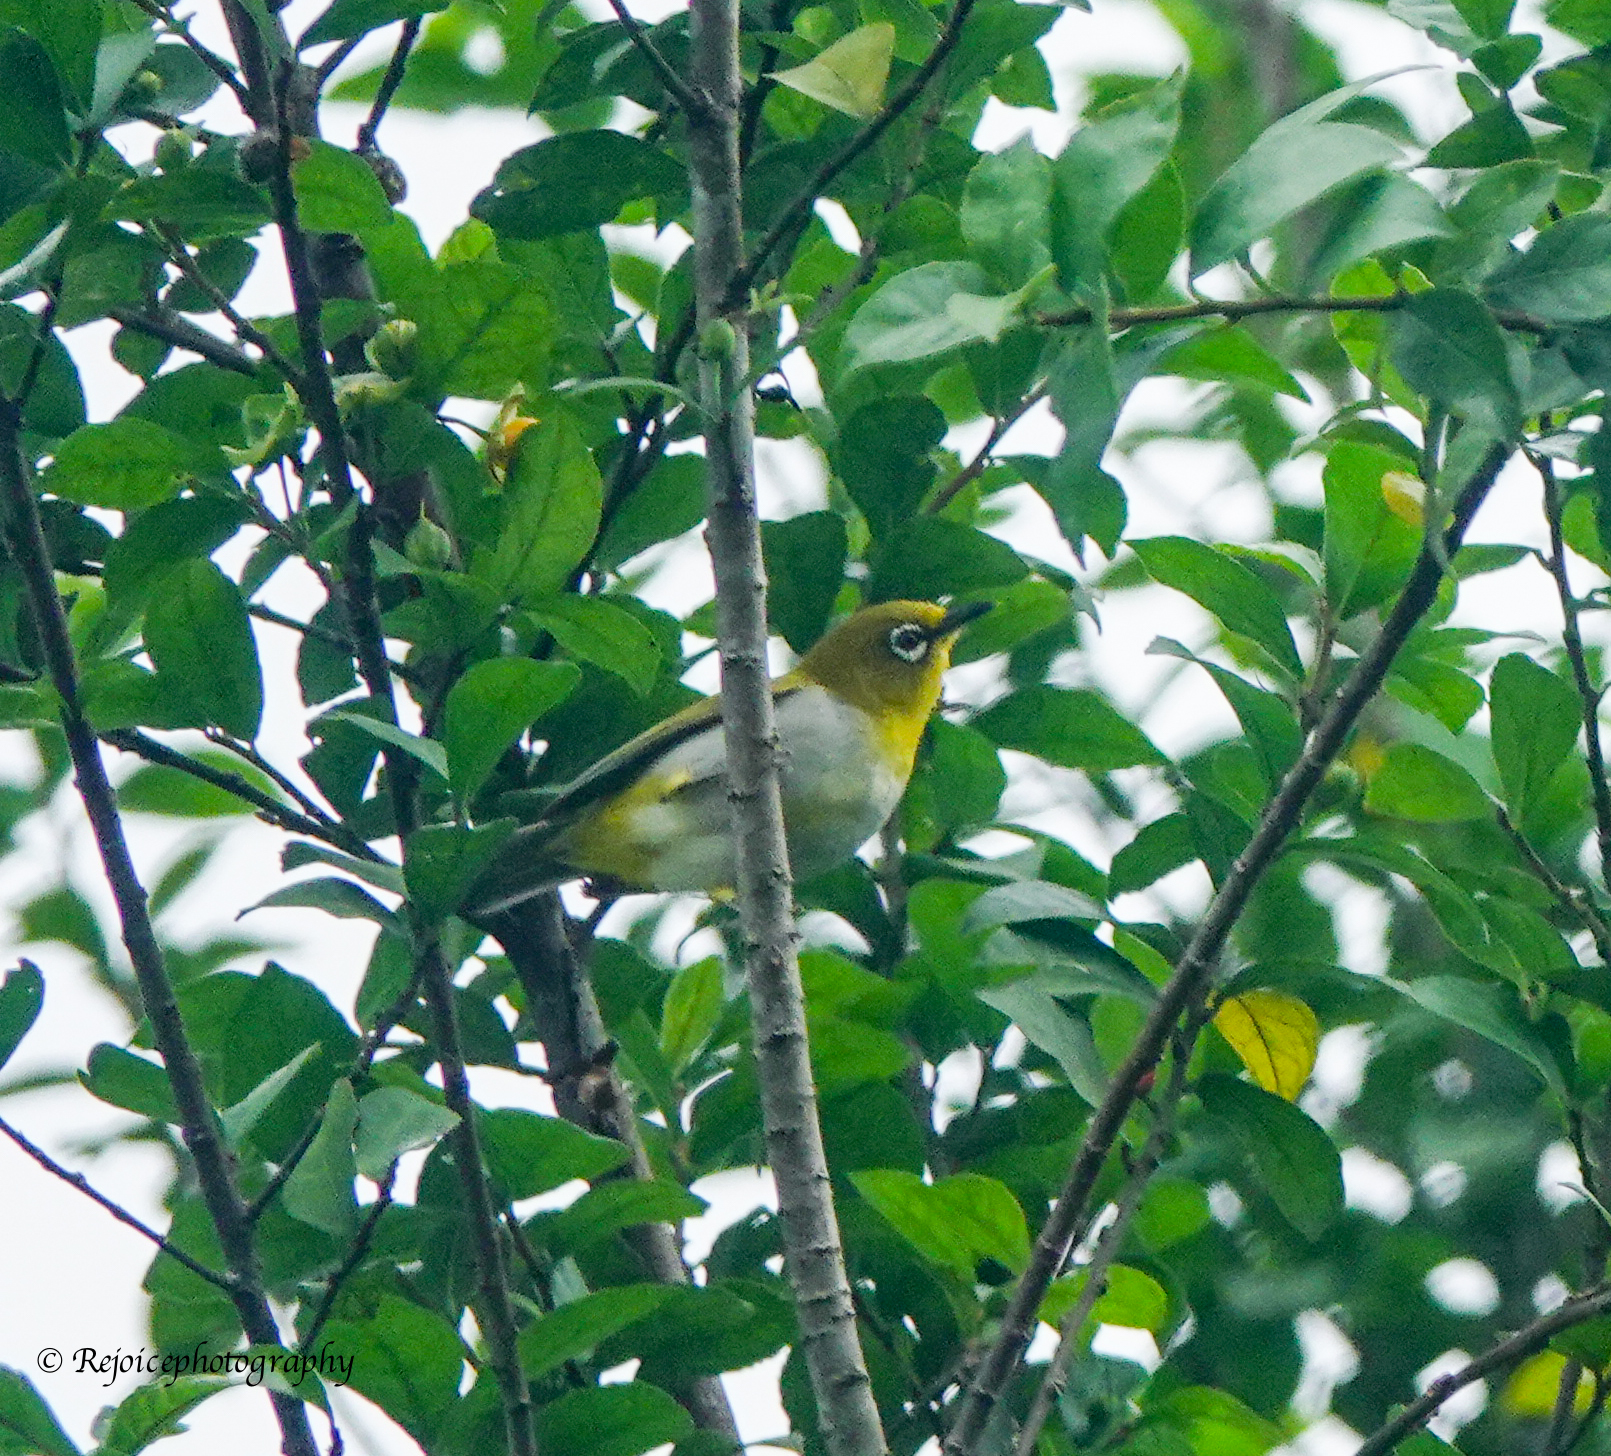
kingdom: Animalia
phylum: Chordata
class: Aves
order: Passeriformes
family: Zosteropidae
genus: Zosterops
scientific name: Zosterops palpebrosus
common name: Oriental white-eye
